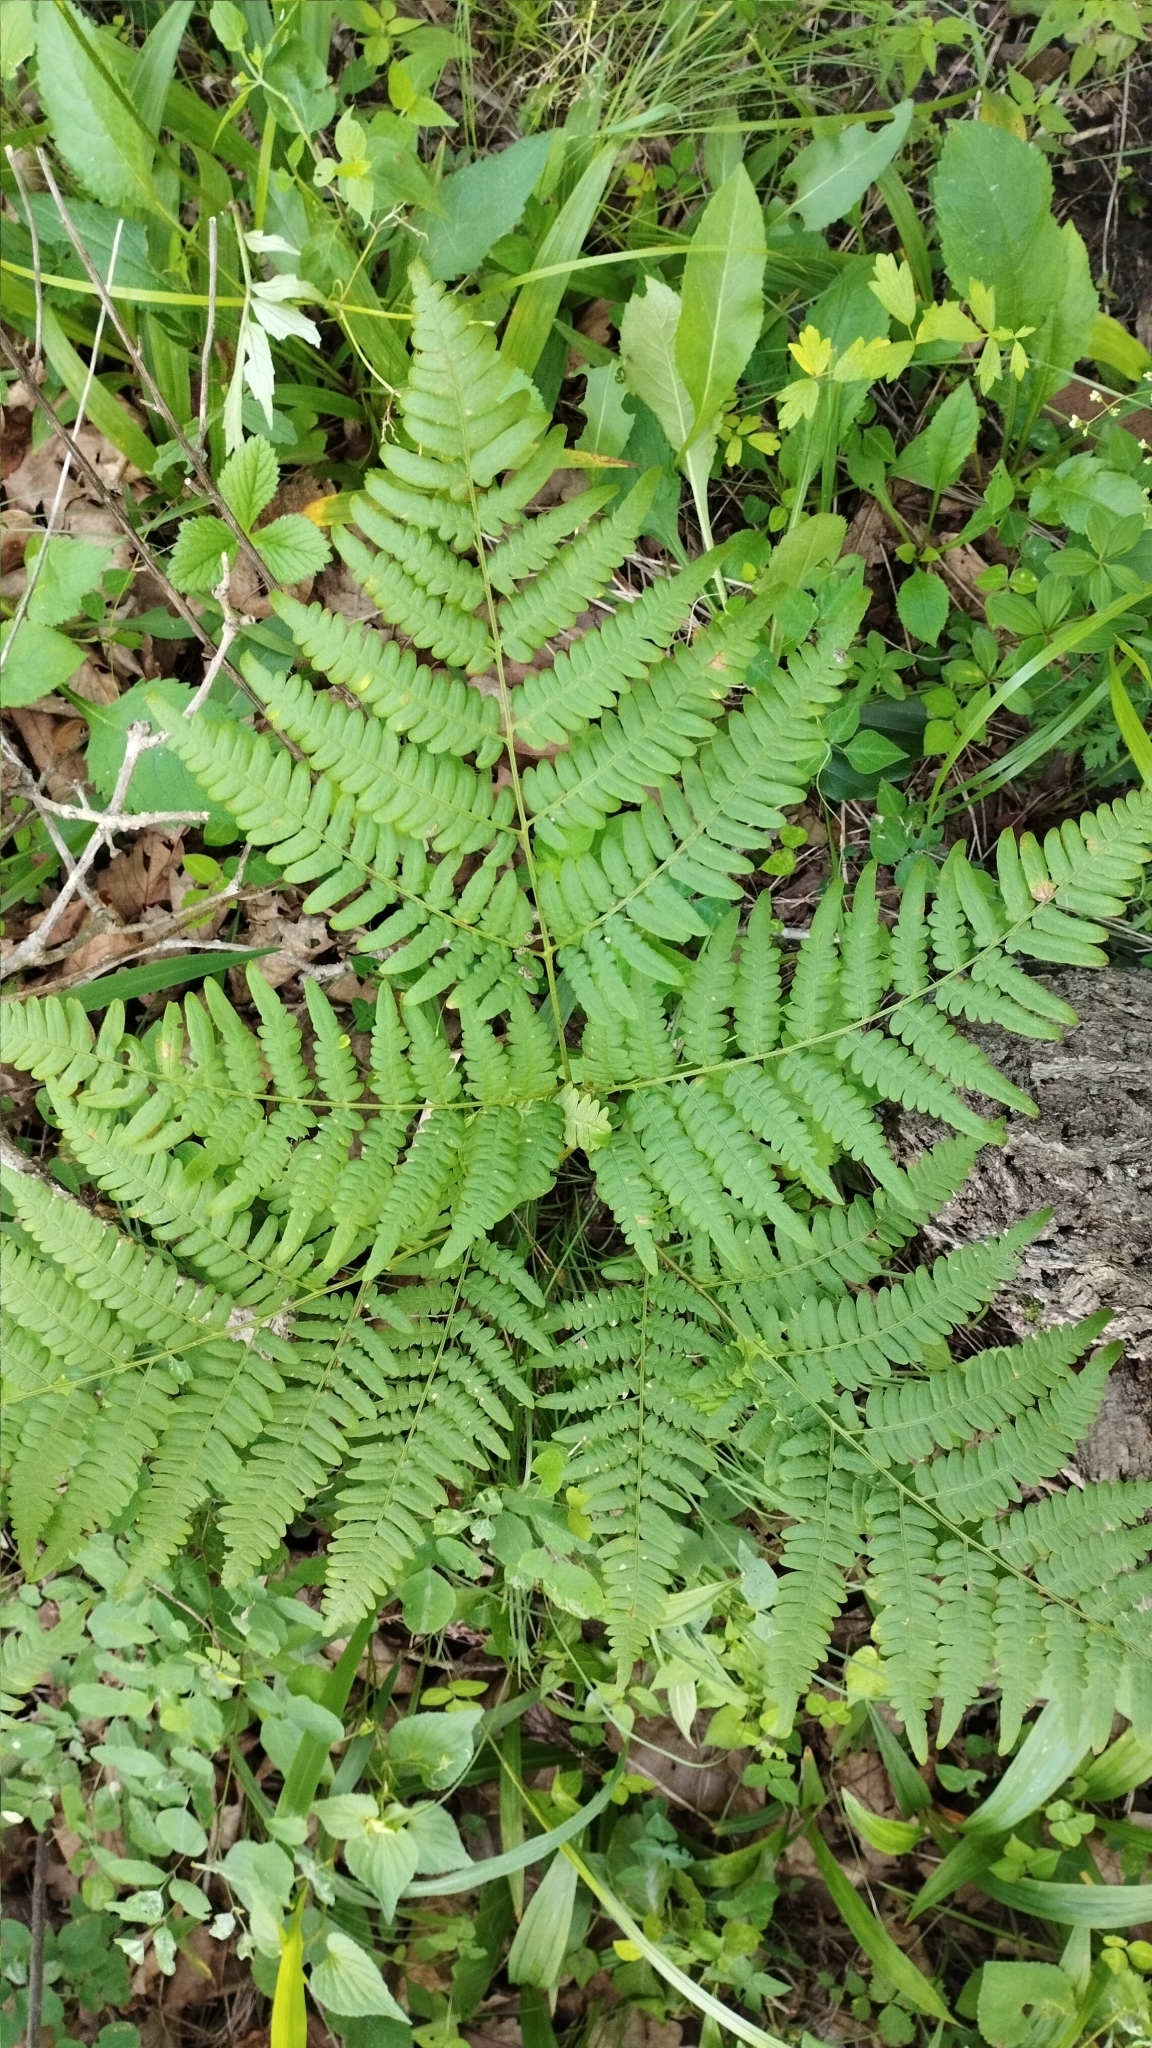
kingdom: Plantae
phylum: Tracheophyta
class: Polypodiopsida
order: Polypodiales
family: Dennstaedtiaceae
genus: Pteridium
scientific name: Pteridium aquilinum
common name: Bracken
